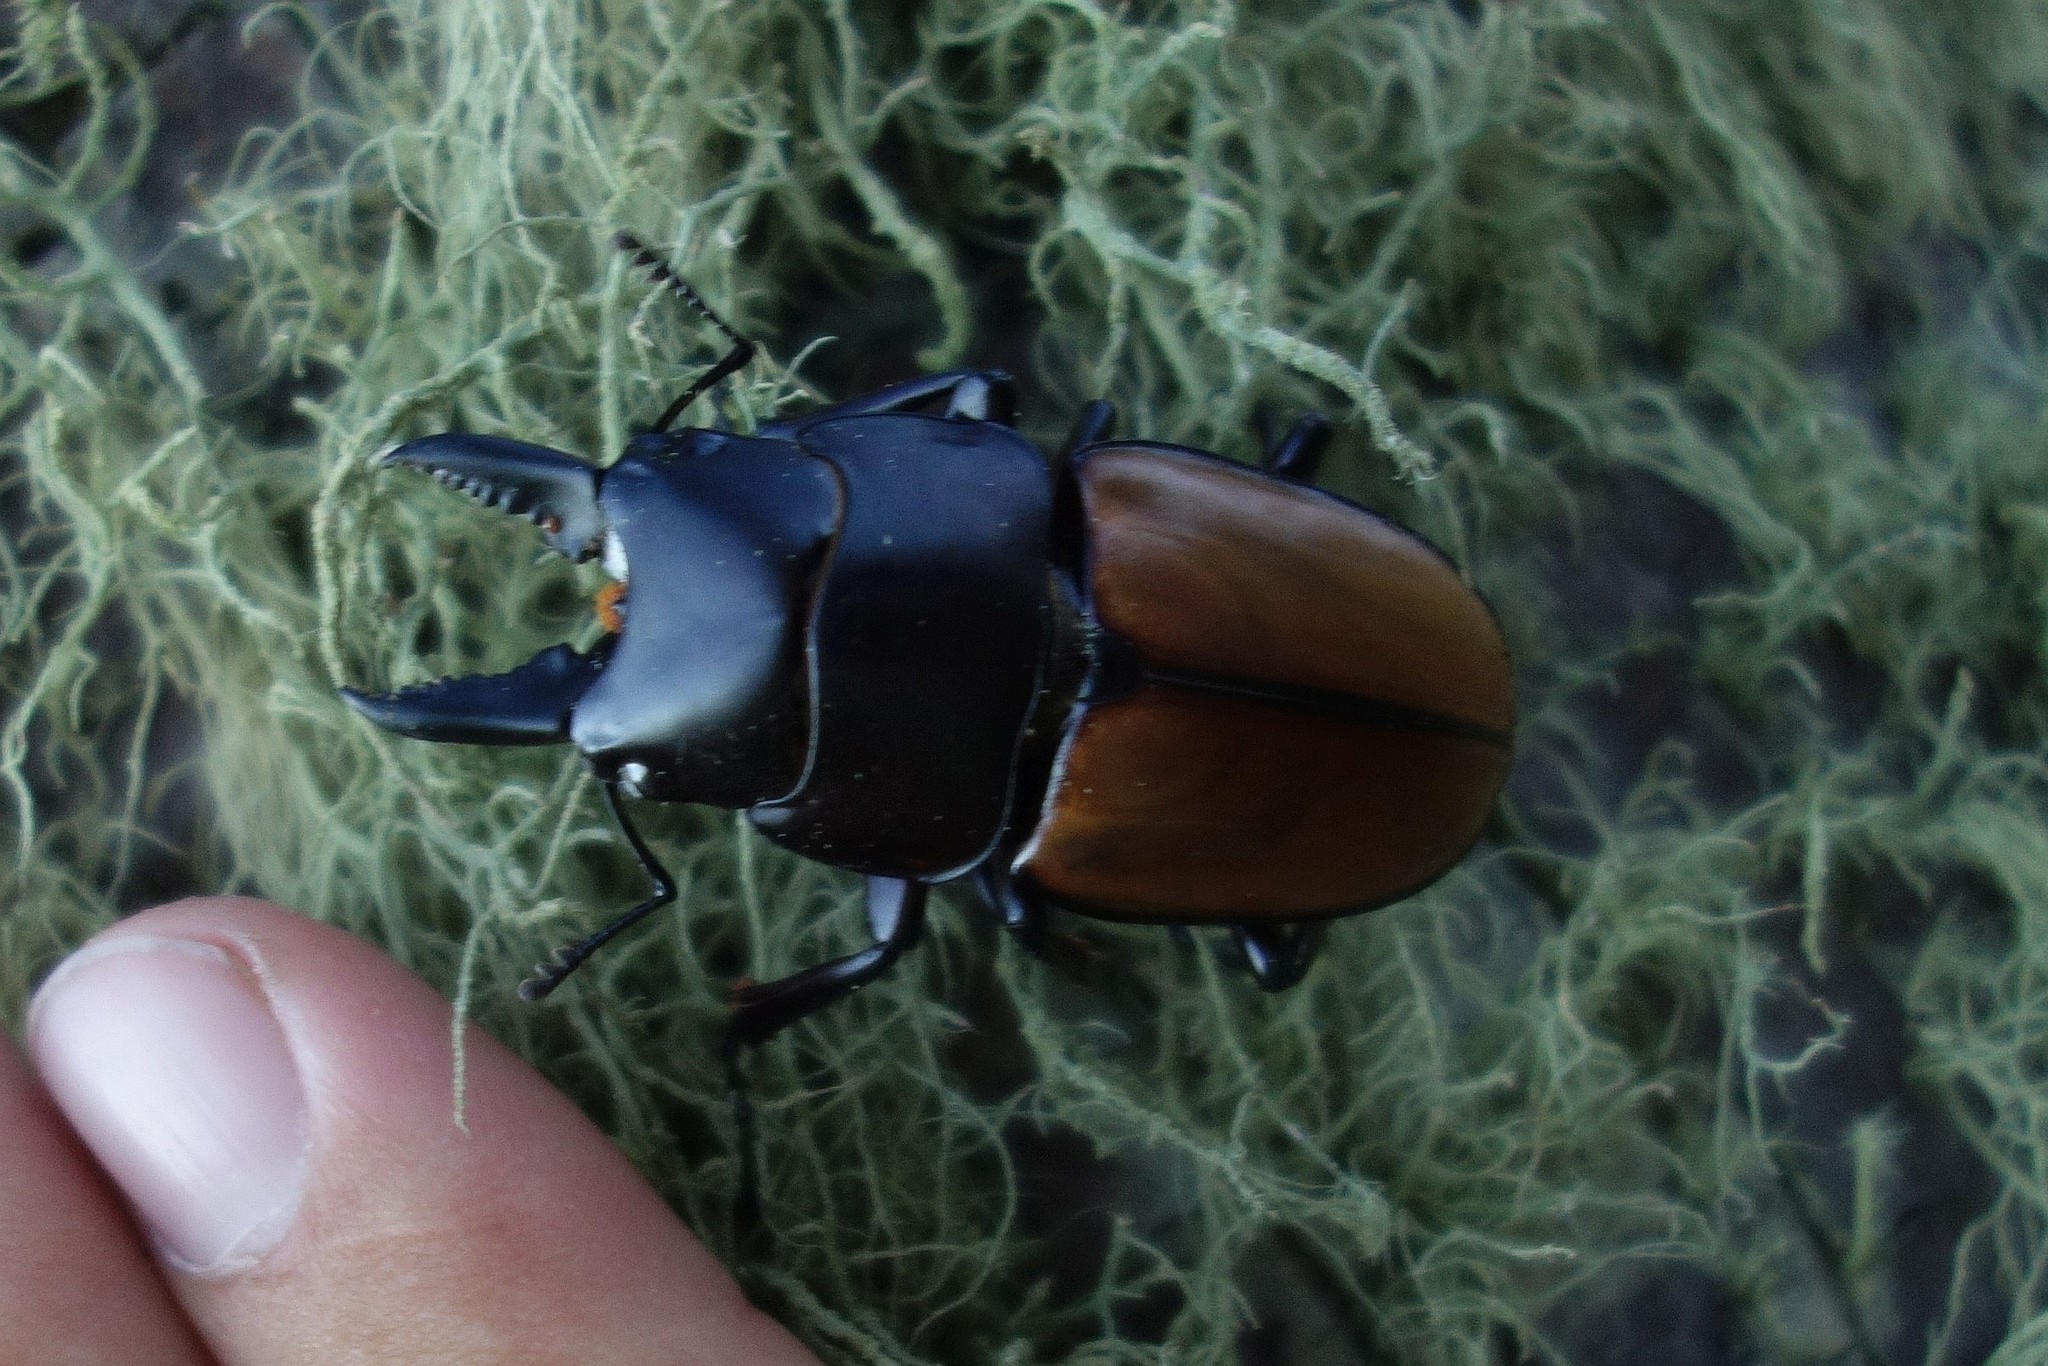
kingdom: Animalia
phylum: Arthropoda
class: Insecta
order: Coleoptera
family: Lucanidae
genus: Prosopocoilus
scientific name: Prosopocoilus lafertei
